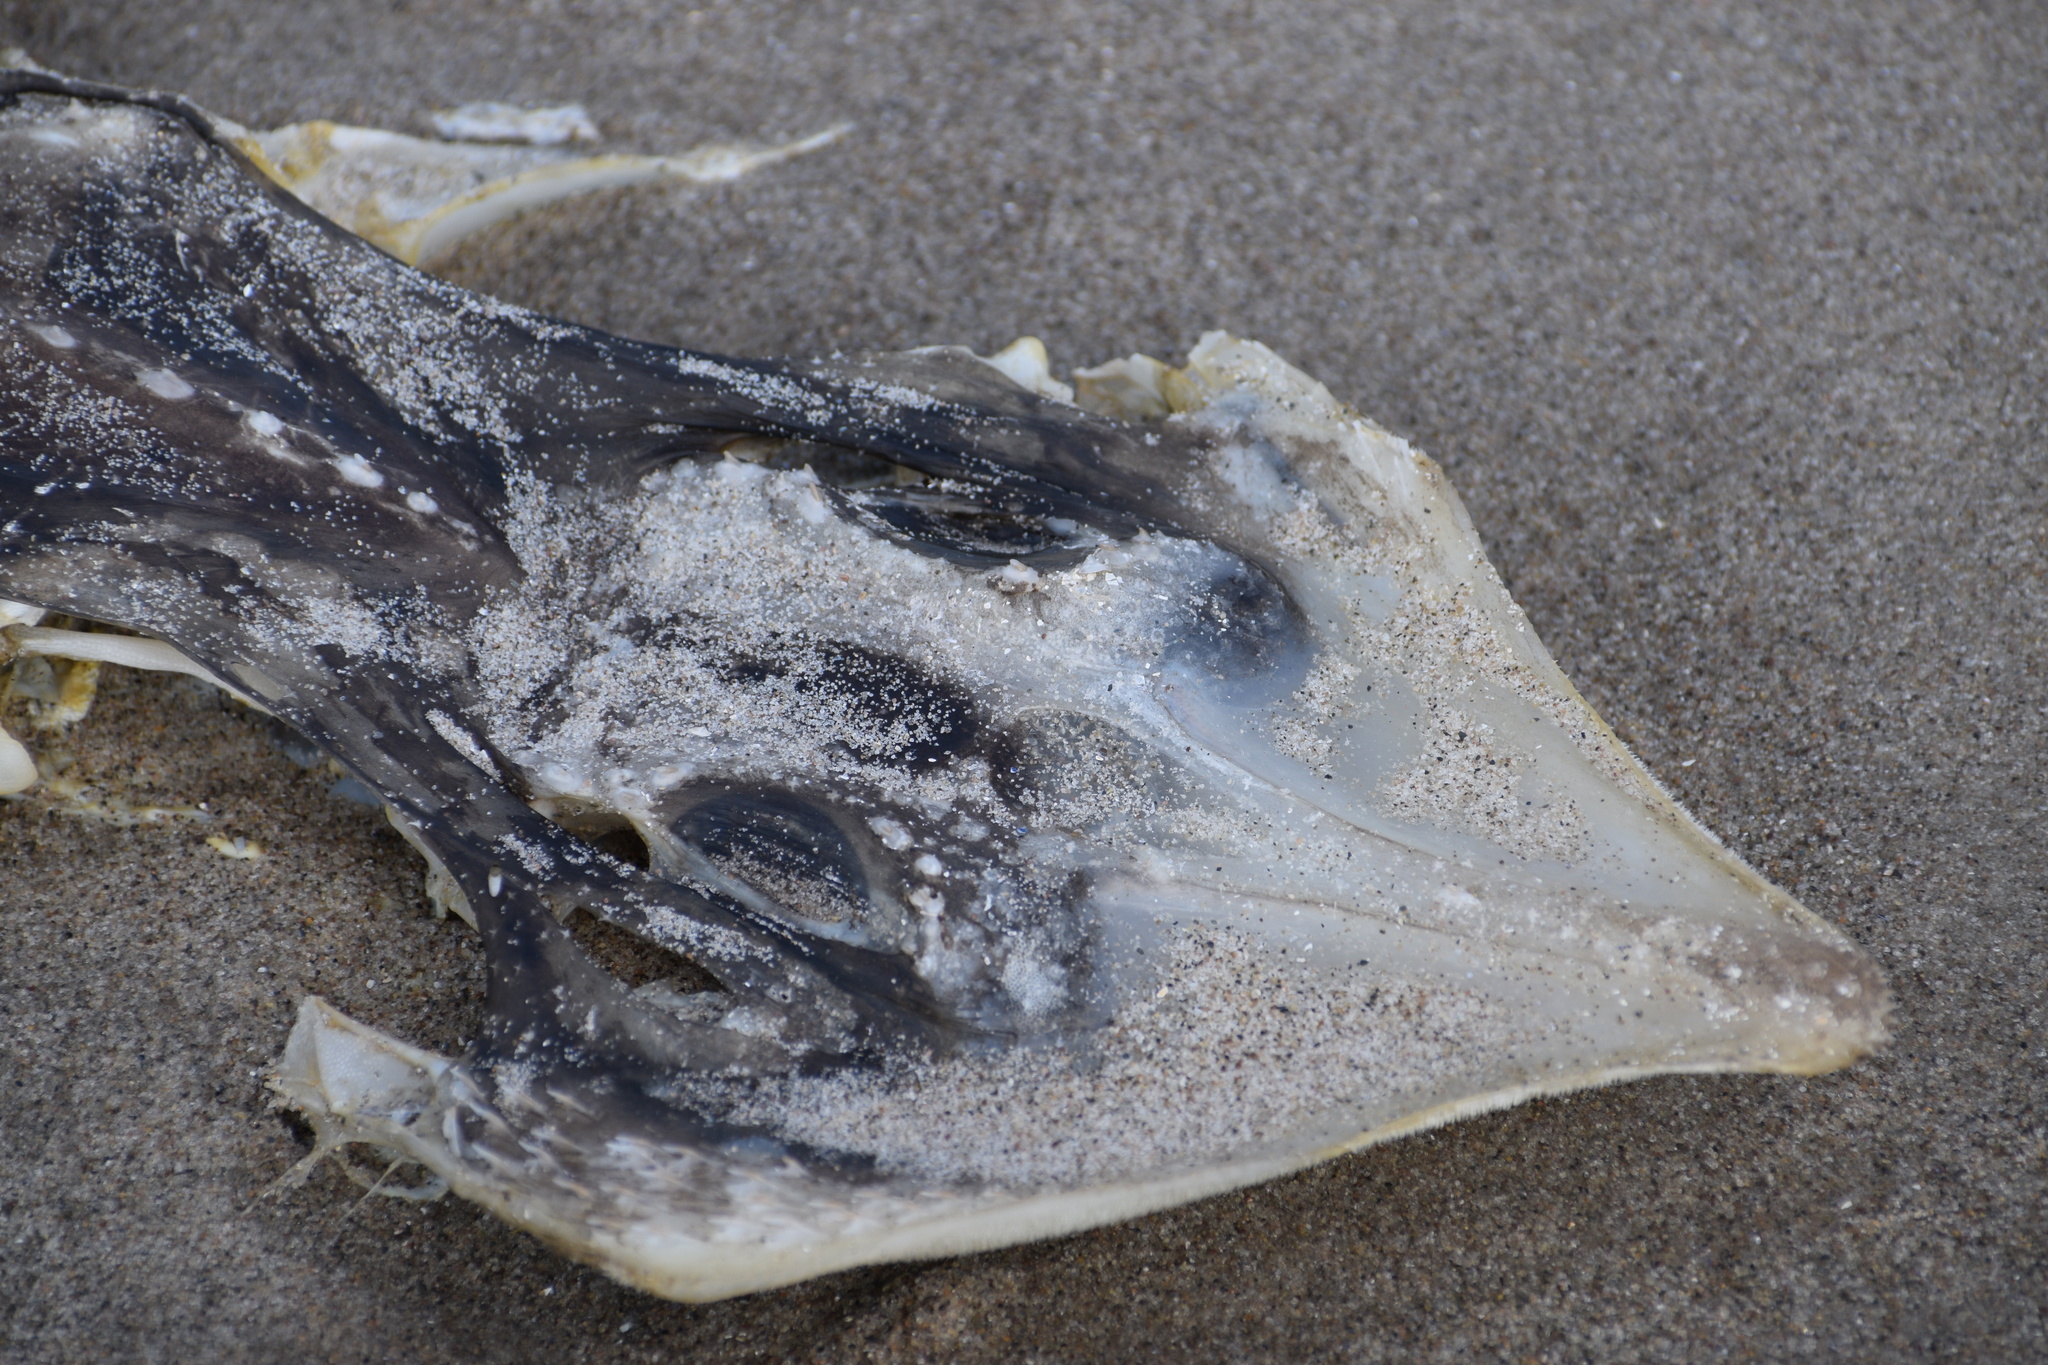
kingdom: Animalia
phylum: Chordata
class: Elasmobranchii
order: Rajiformes
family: Rajidae
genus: Raja
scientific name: Raja eglanteria
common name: Clearnose skate
